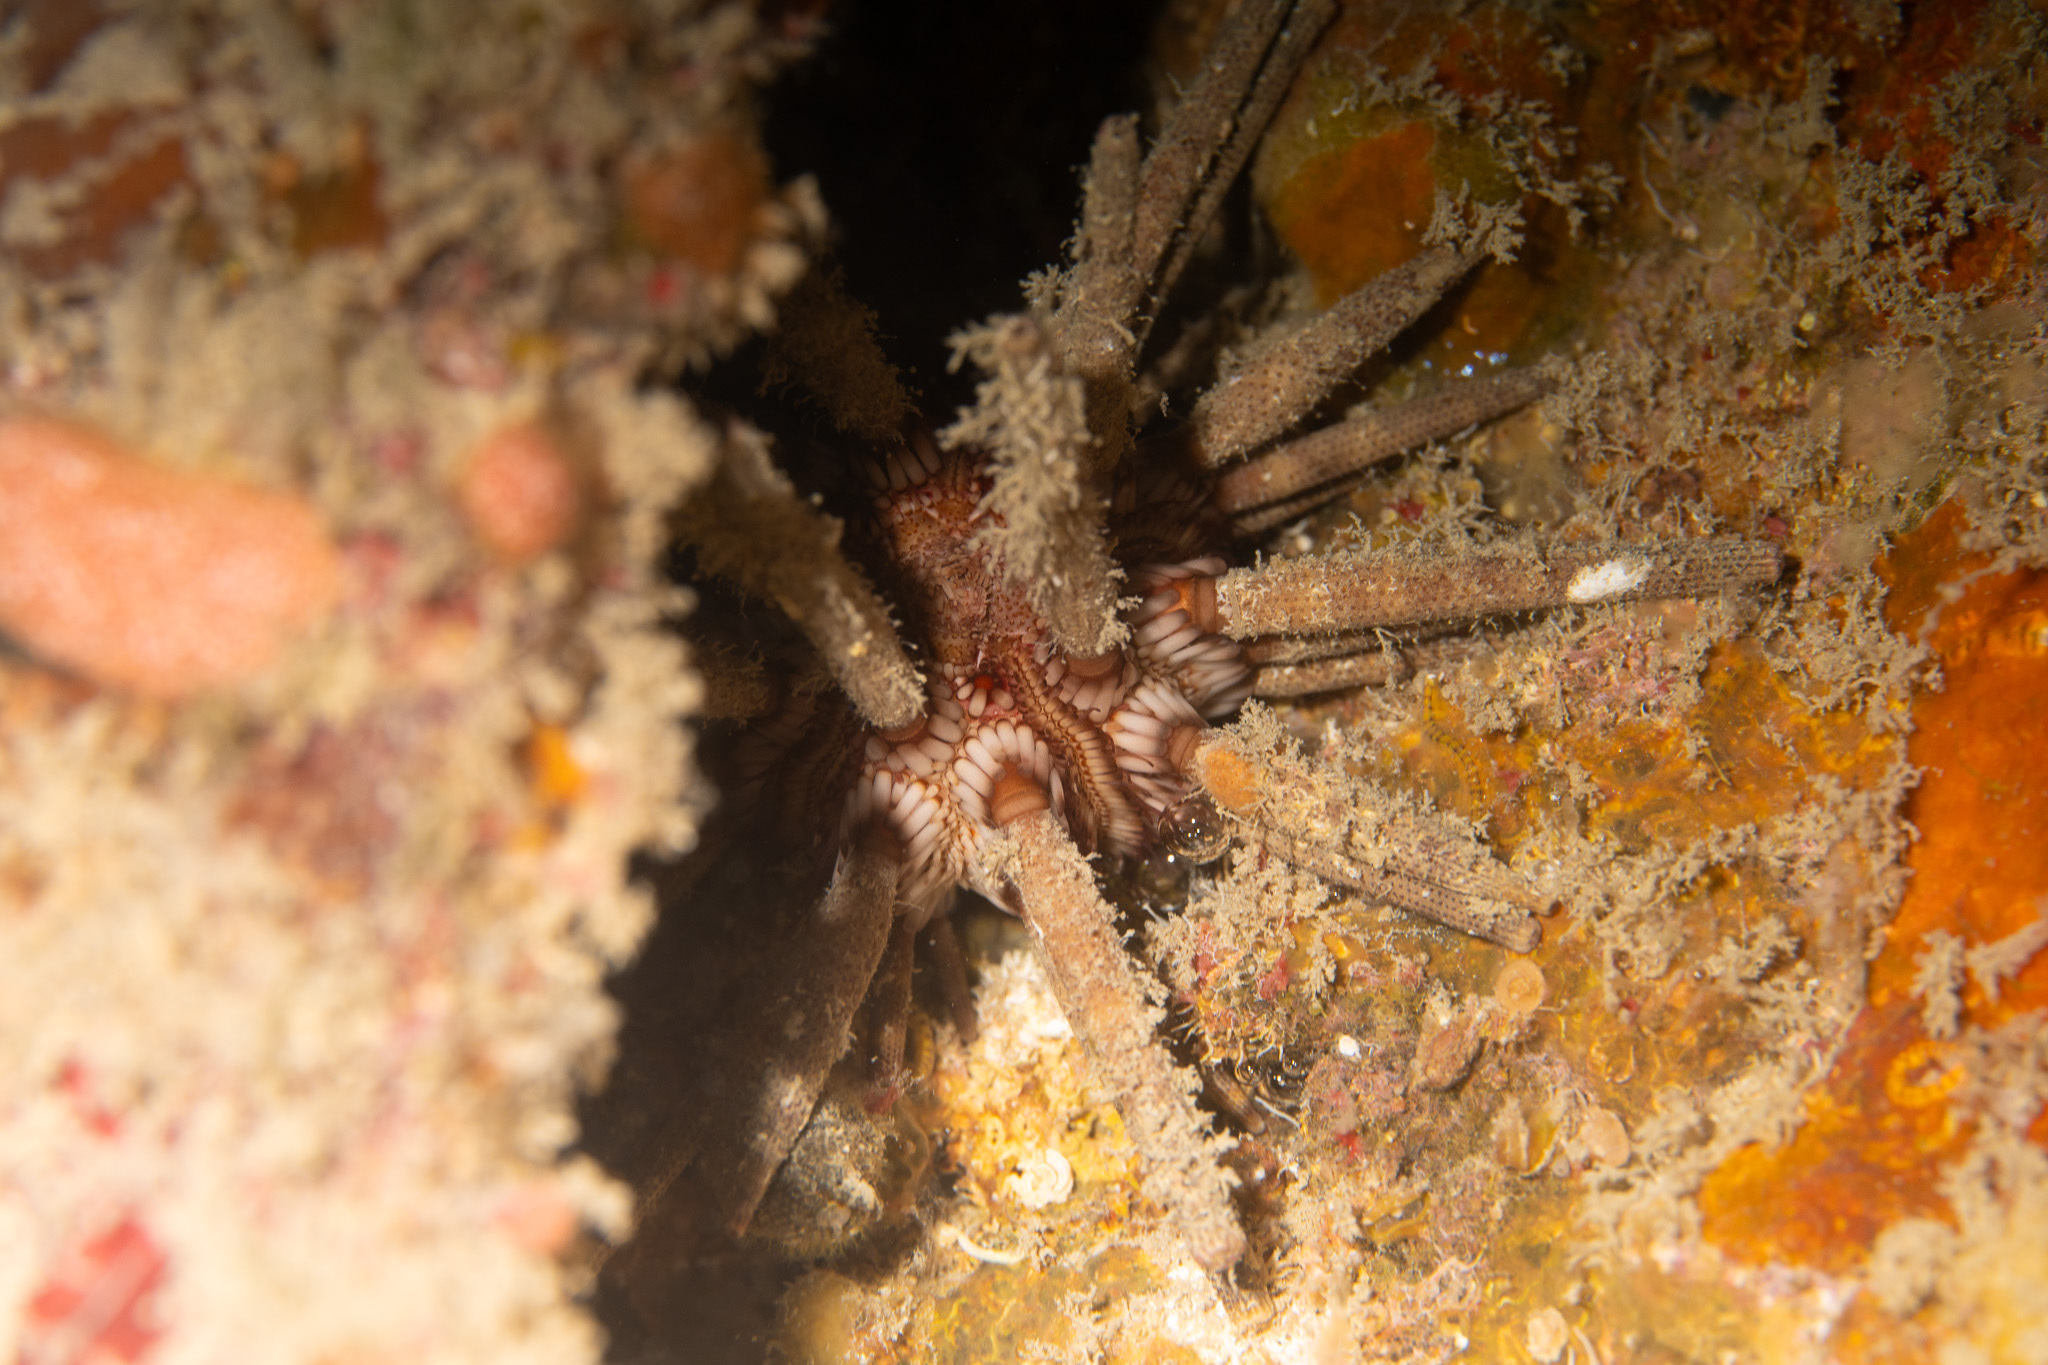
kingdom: Animalia
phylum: Echinodermata
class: Echinoidea
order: Cidaroida
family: Cidaridae
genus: Eucidaris
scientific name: Eucidaris tribuloides
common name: Slate pencil urchin
